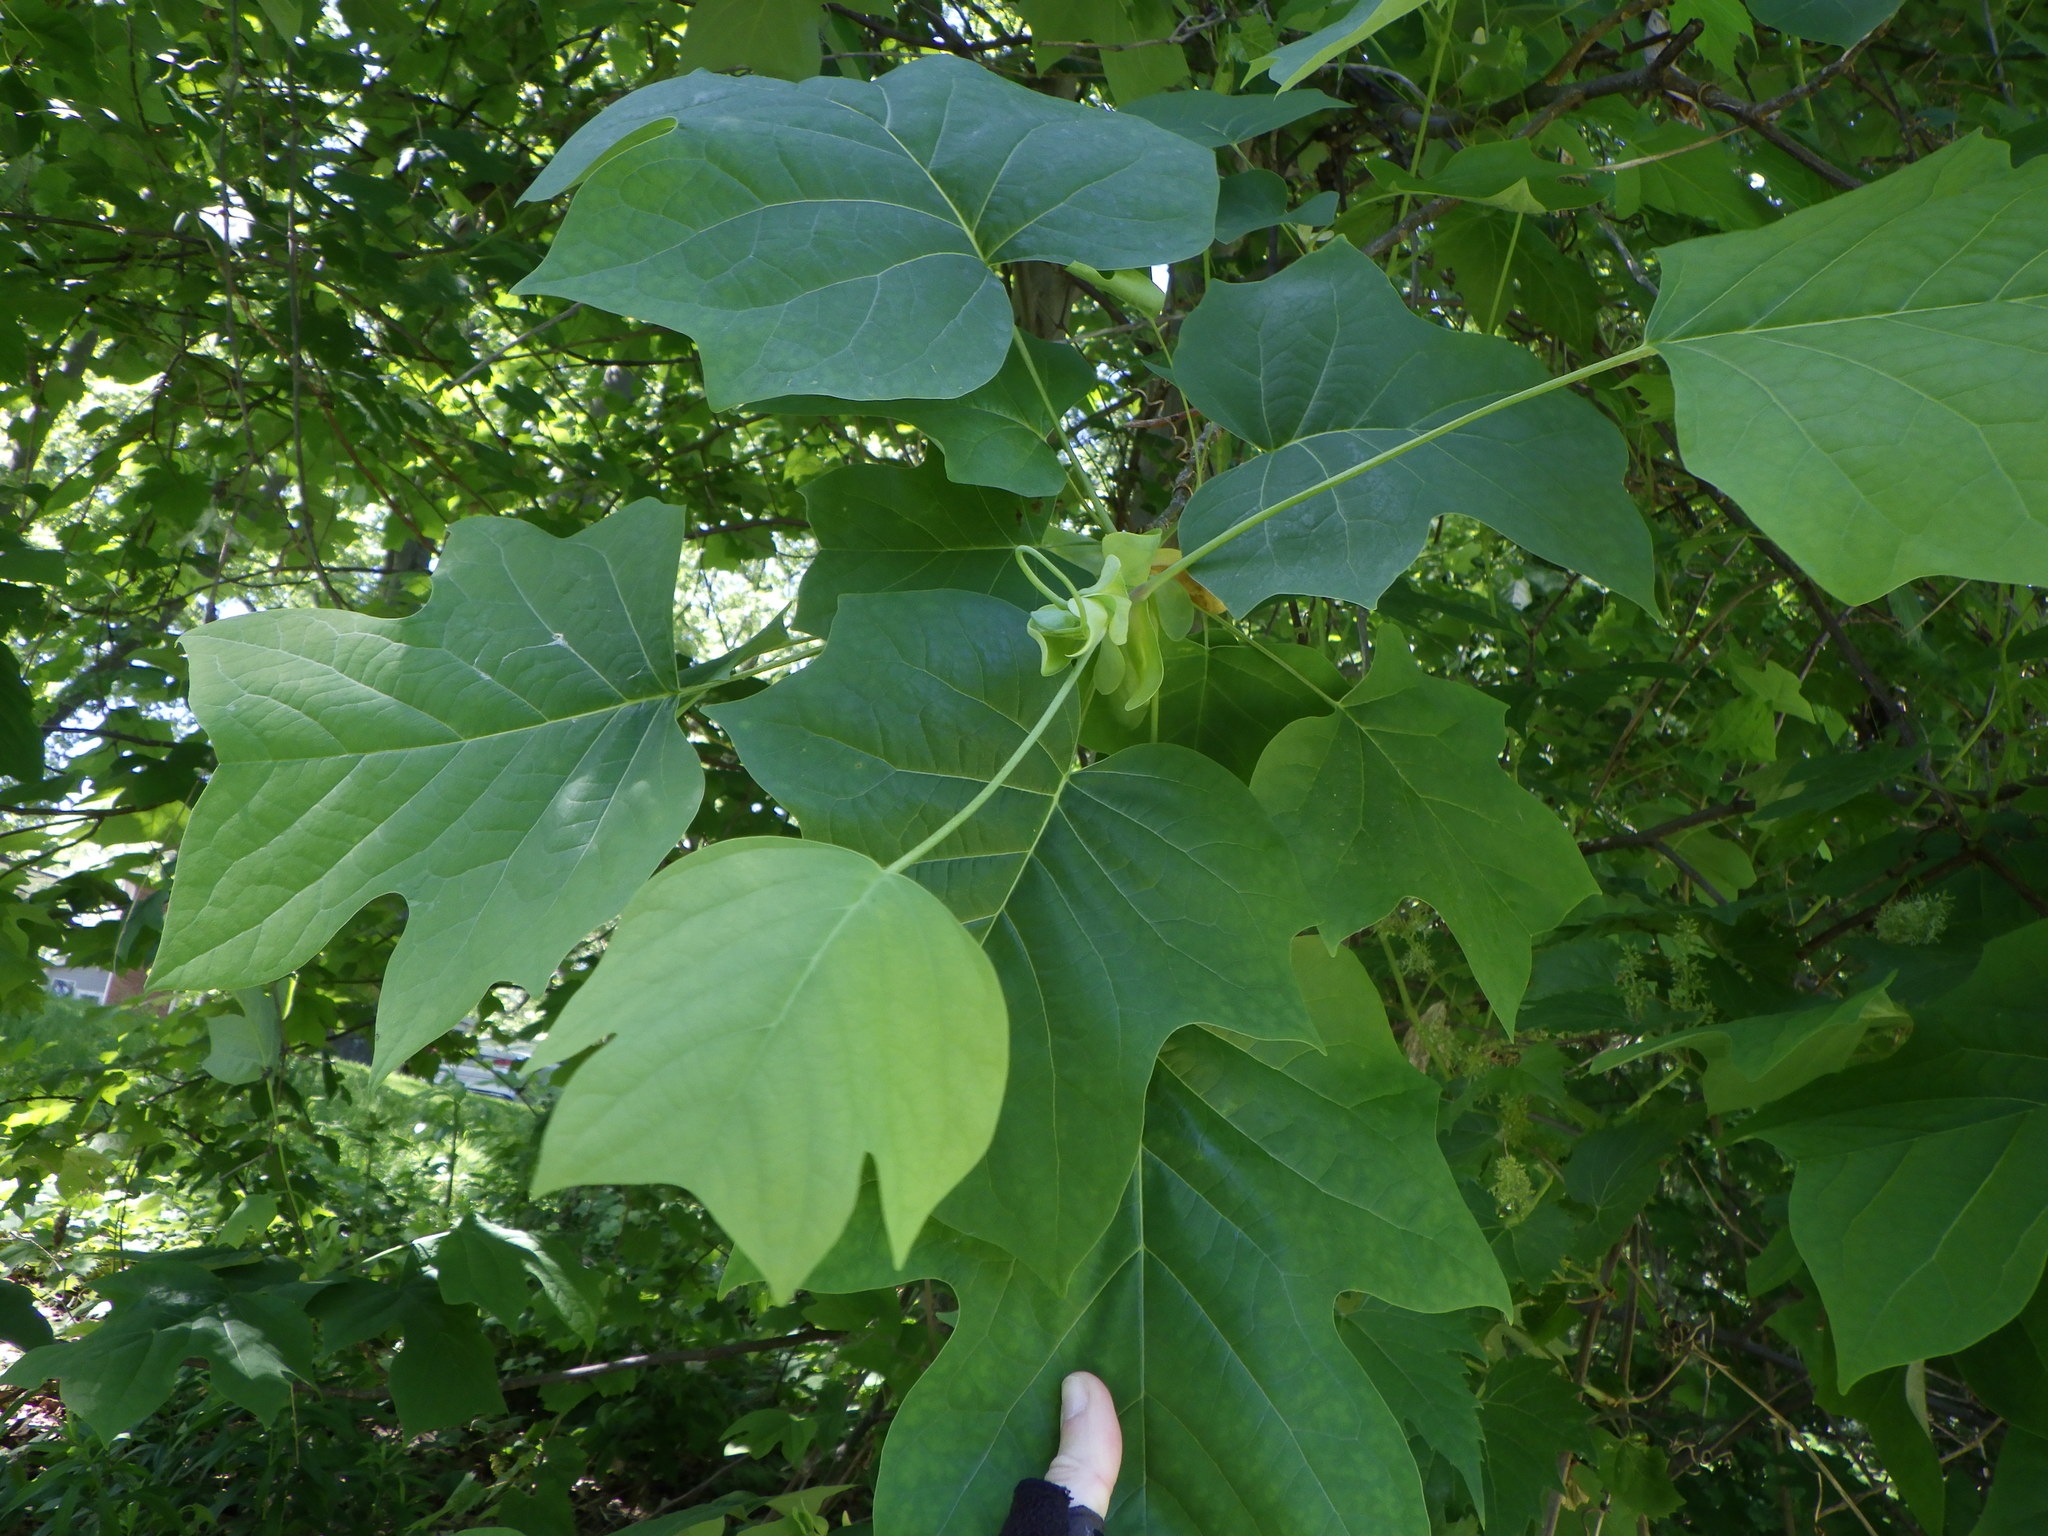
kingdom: Plantae
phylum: Tracheophyta
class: Magnoliopsida
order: Magnoliales
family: Magnoliaceae
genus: Liriodendron
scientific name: Liriodendron tulipifera
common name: Tulip tree
